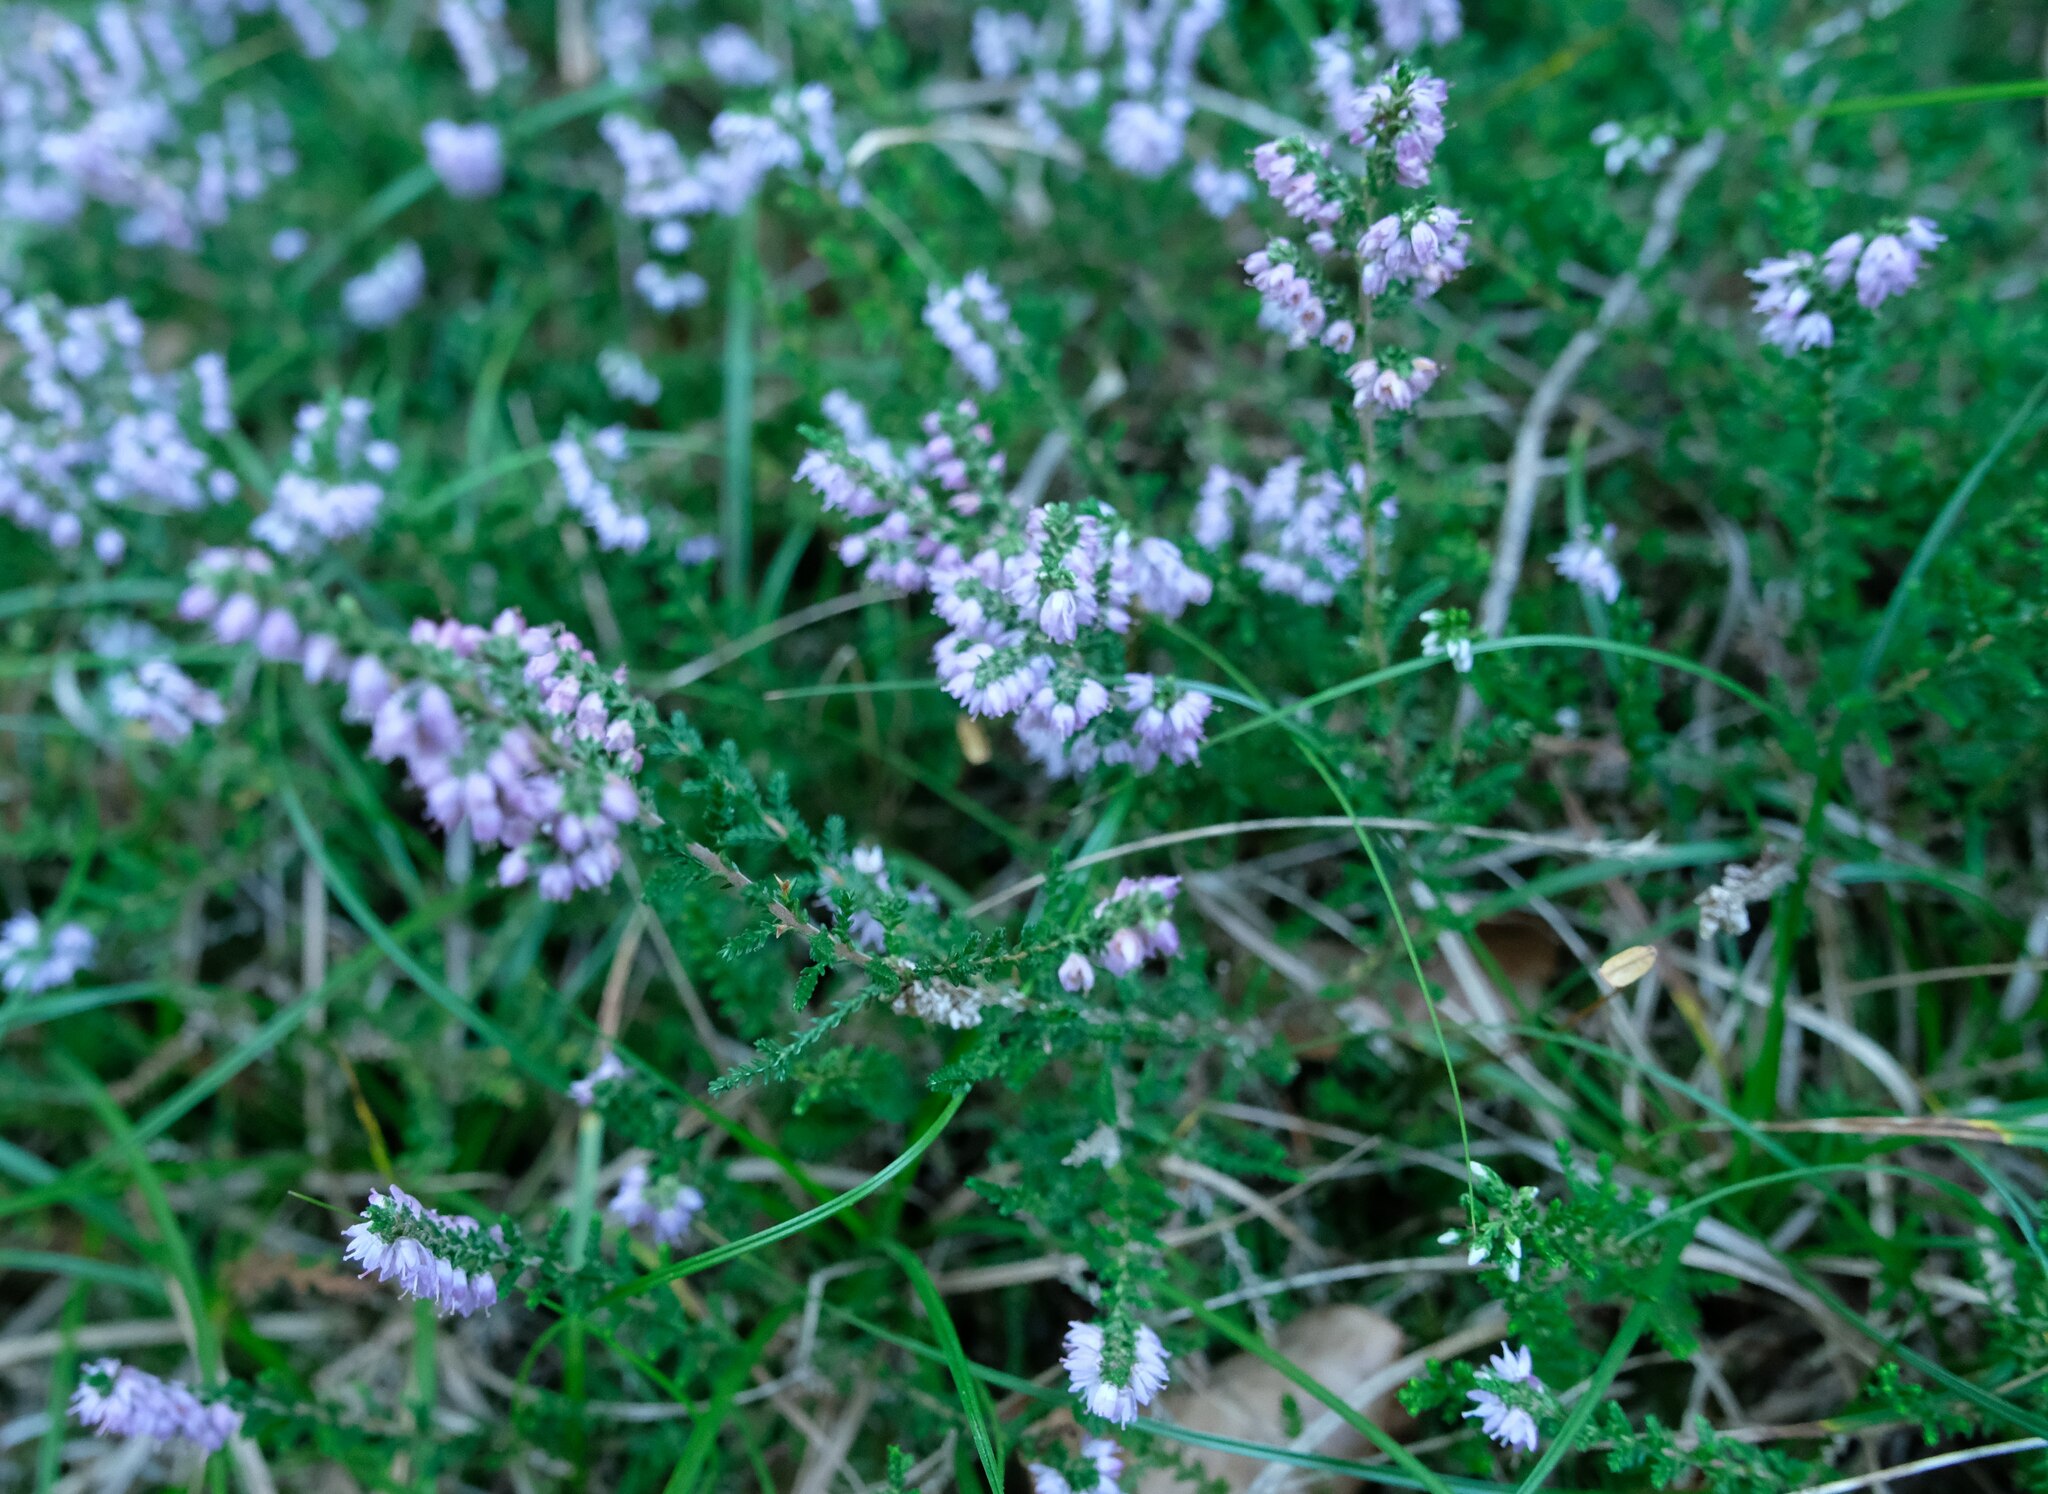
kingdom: Plantae
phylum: Tracheophyta
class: Magnoliopsida
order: Ericales
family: Ericaceae
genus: Calluna
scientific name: Calluna vulgaris
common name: Heather
